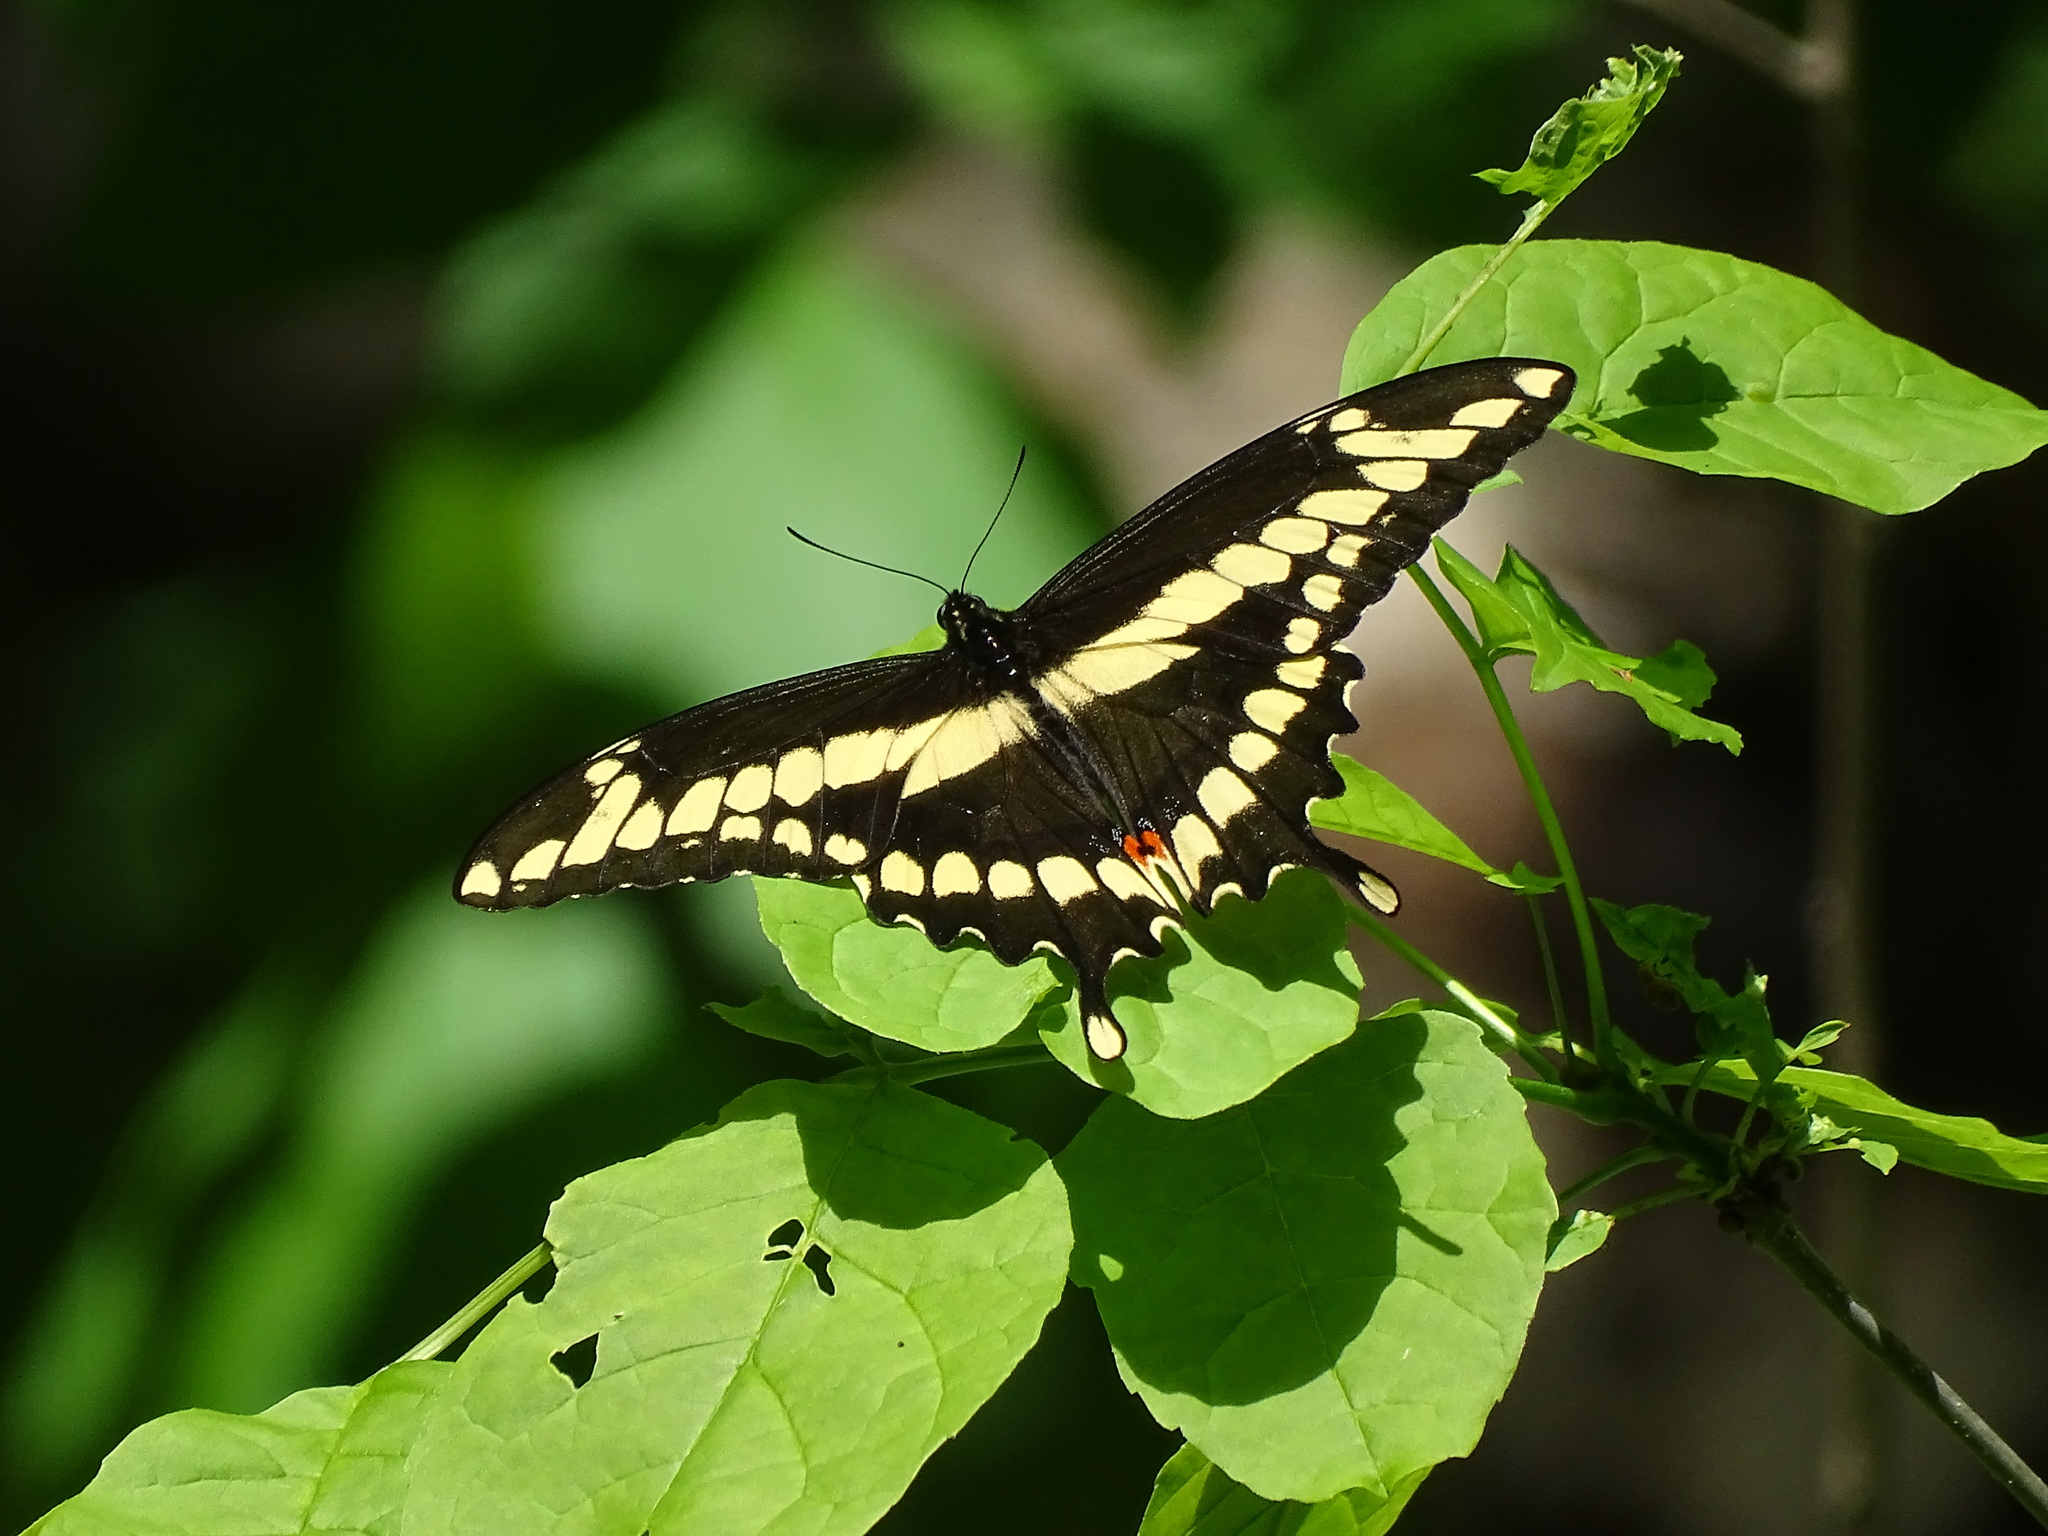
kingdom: Animalia
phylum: Arthropoda
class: Insecta
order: Lepidoptera
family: Papilionidae
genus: Papilio
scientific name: Papilio cresphontes
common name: Giant swallowtail
